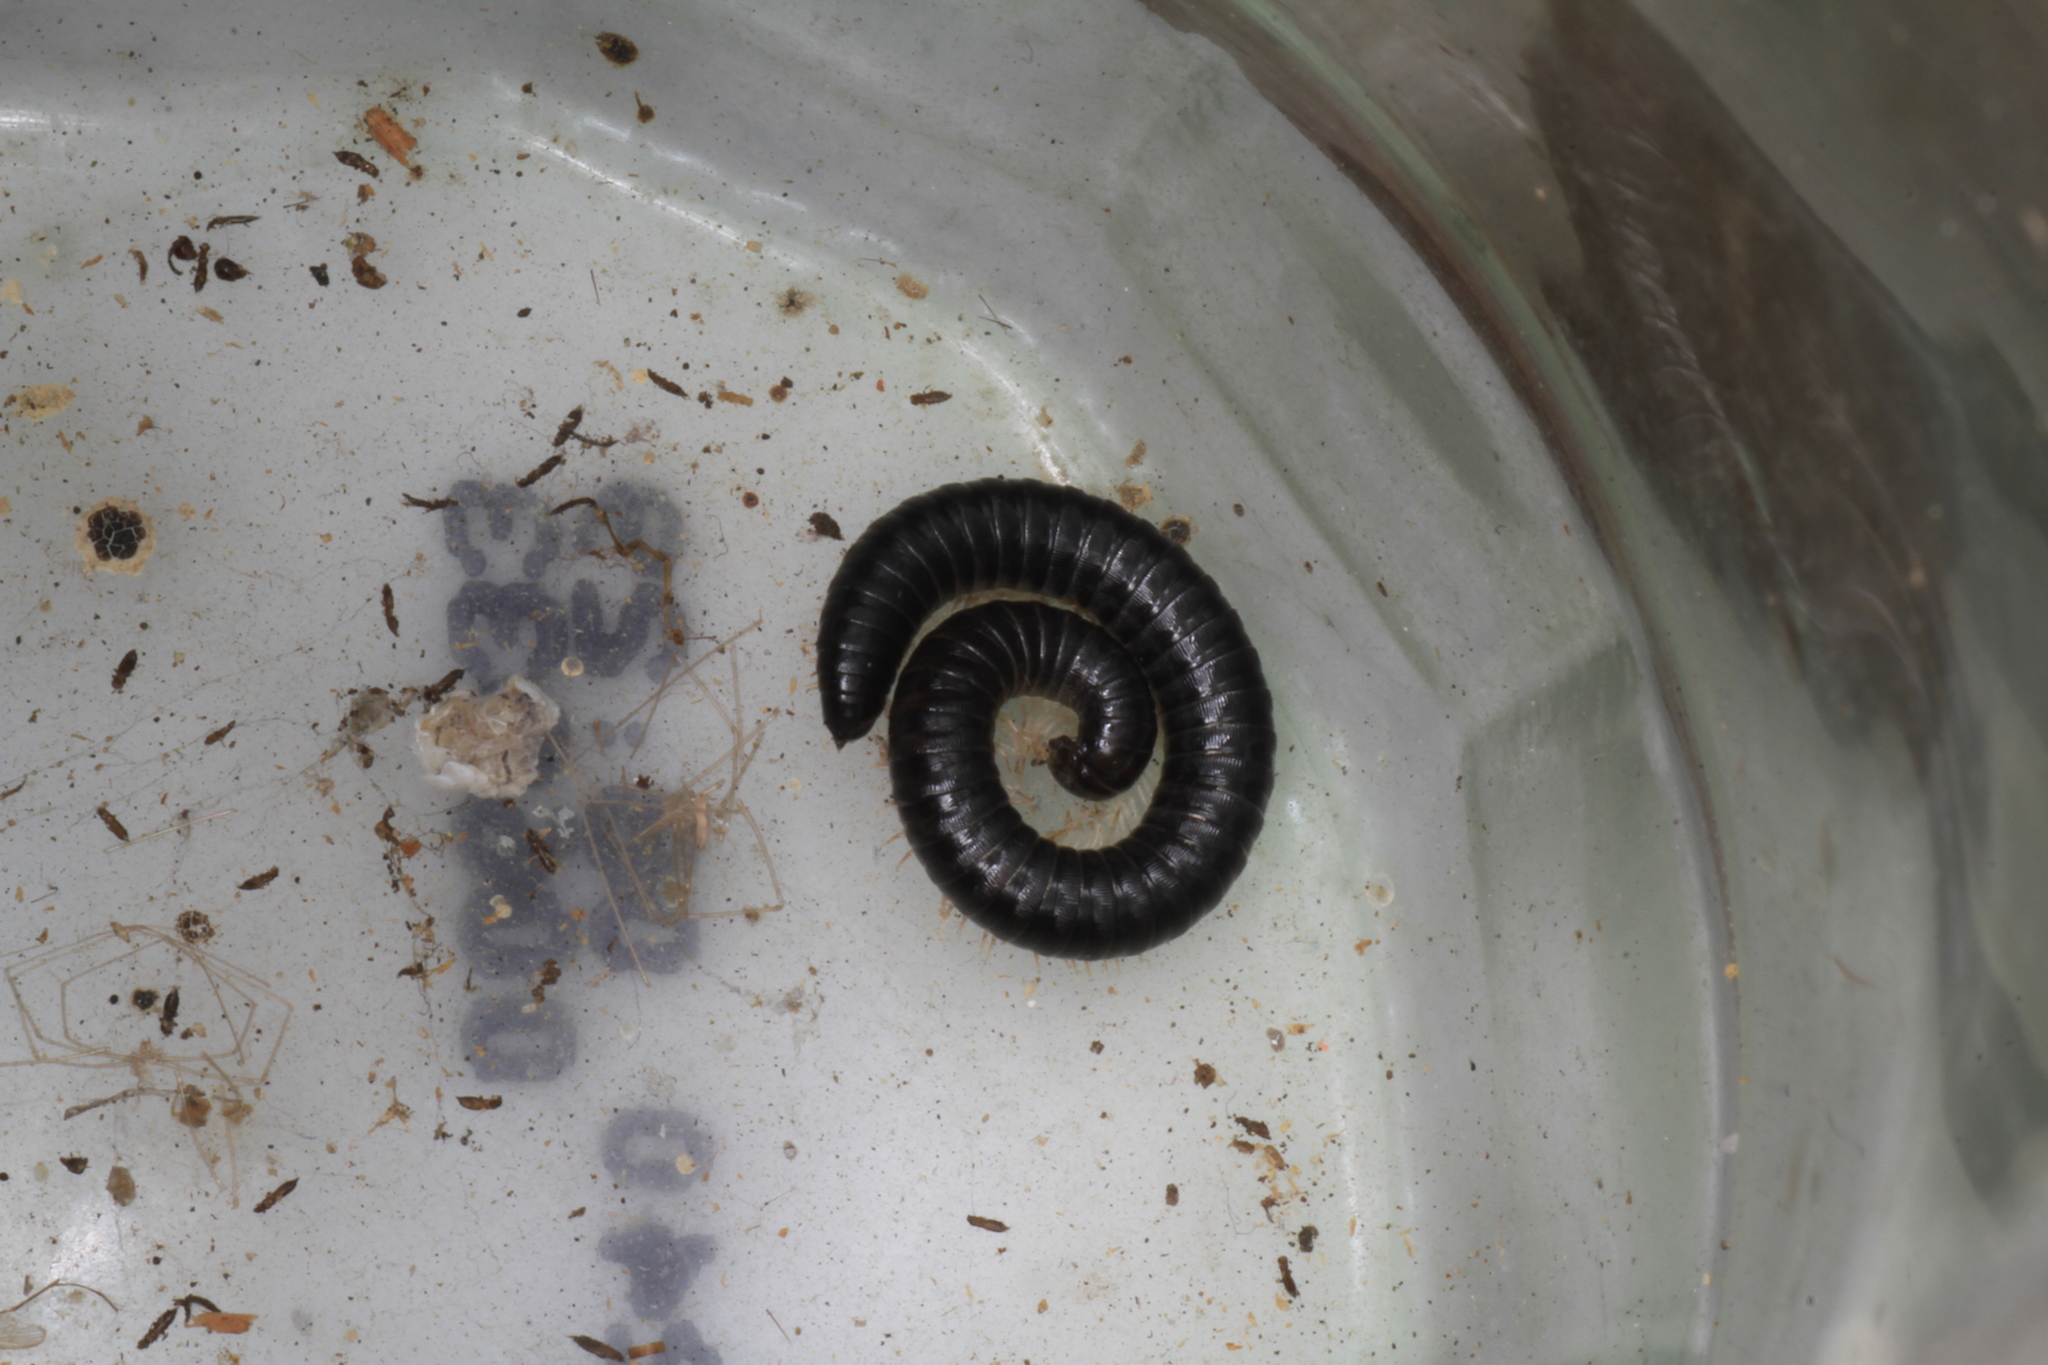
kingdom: Animalia
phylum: Arthropoda
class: Diplopoda
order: Julida
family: Julidae
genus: Tachypodoiulus
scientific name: Tachypodoiulus niger
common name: White-legged snake millipede
